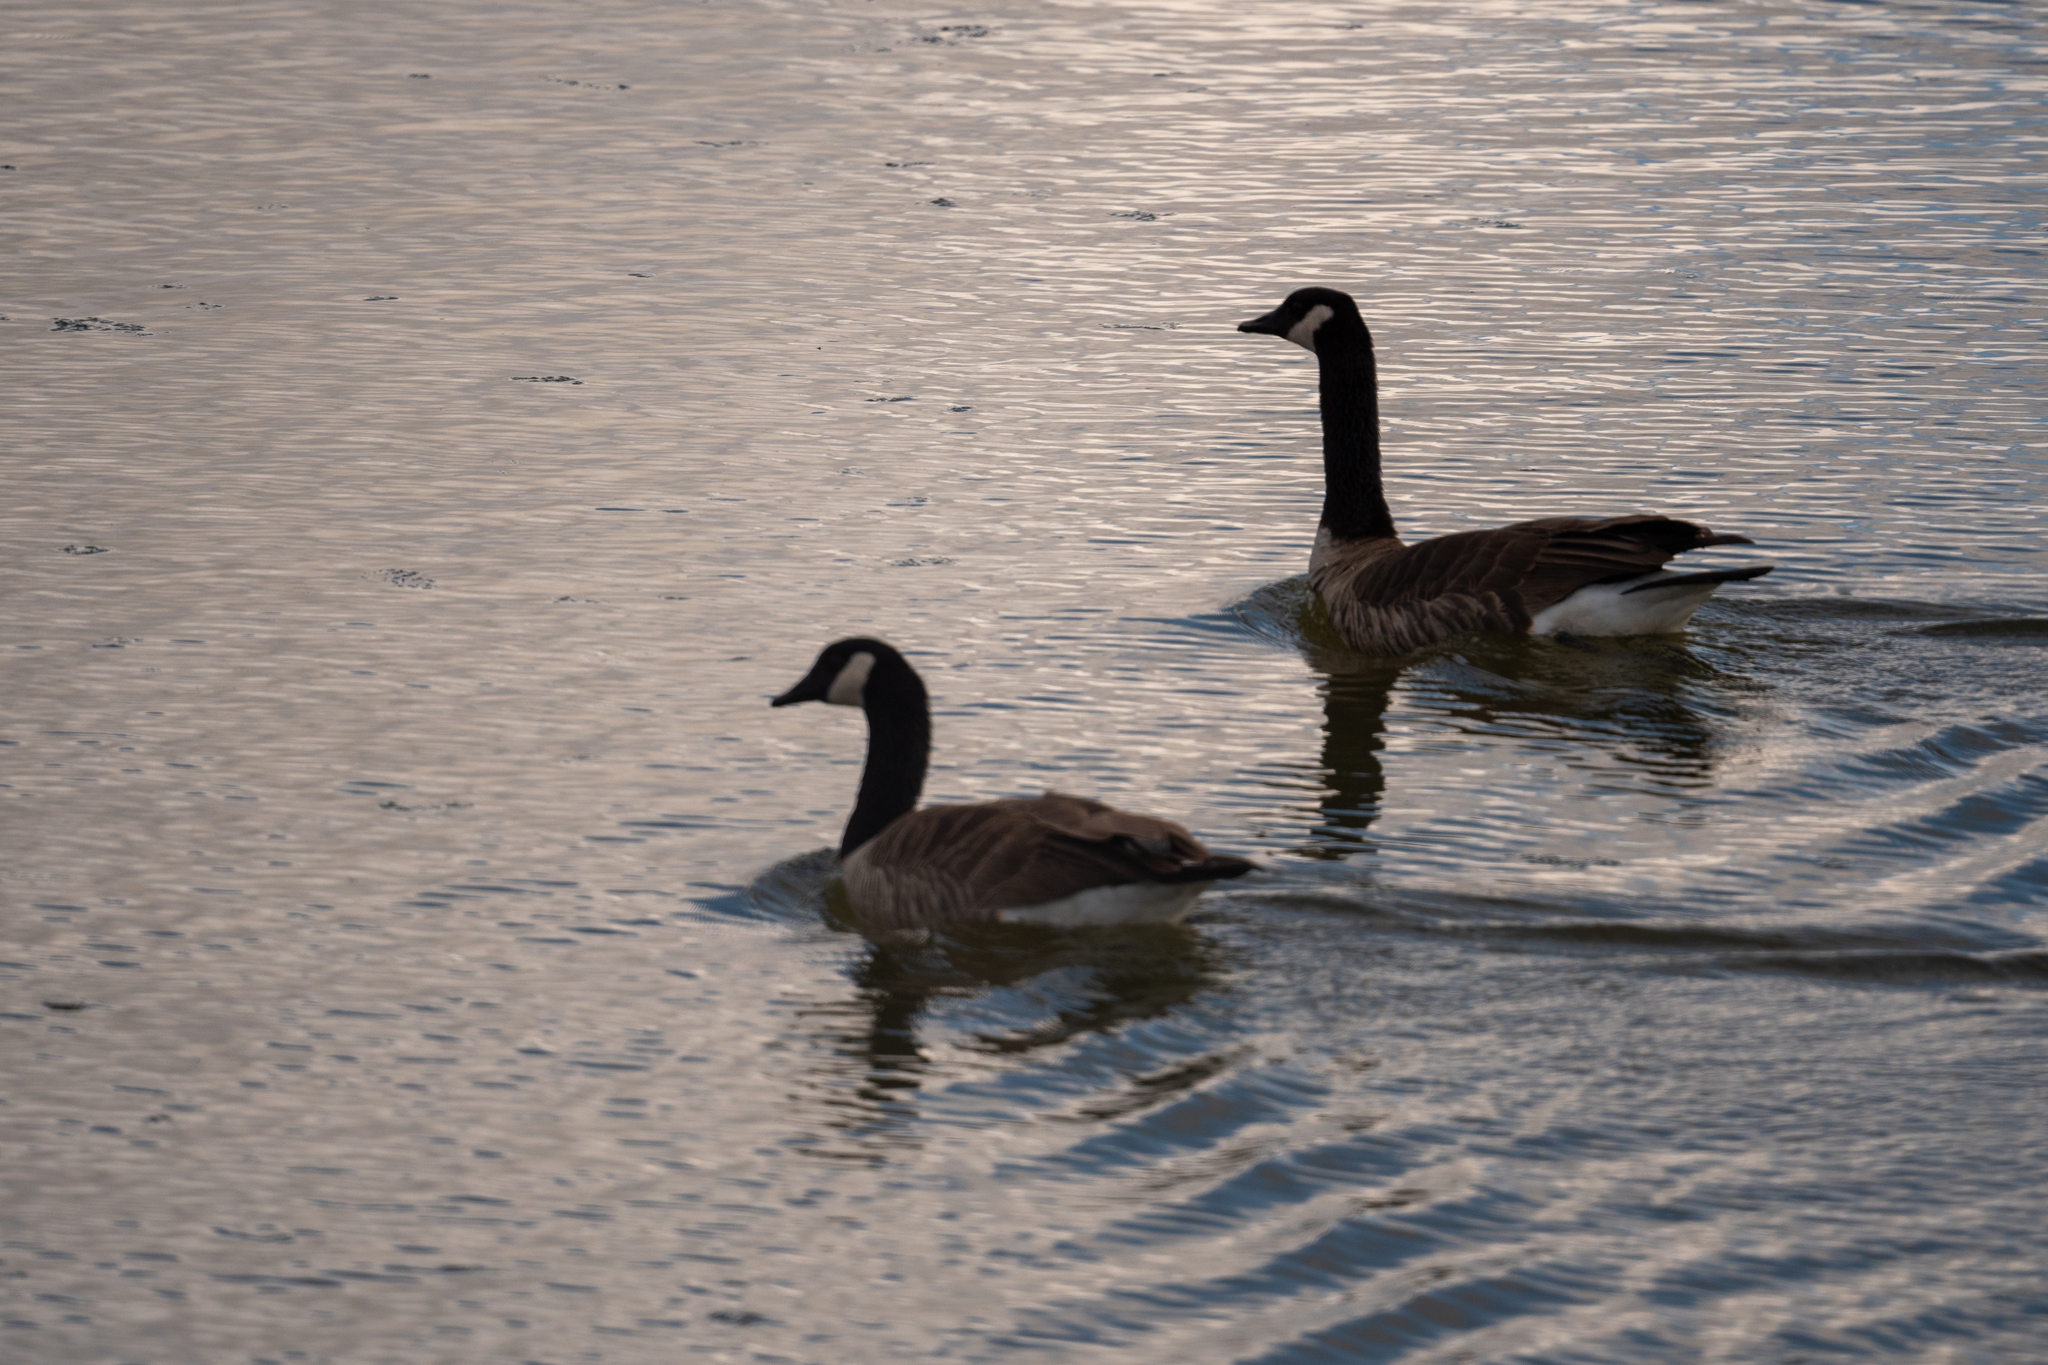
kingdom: Animalia
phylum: Chordata
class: Aves
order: Anseriformes
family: Anatidae
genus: Branta
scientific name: Branta canadensis
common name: Canada goose
